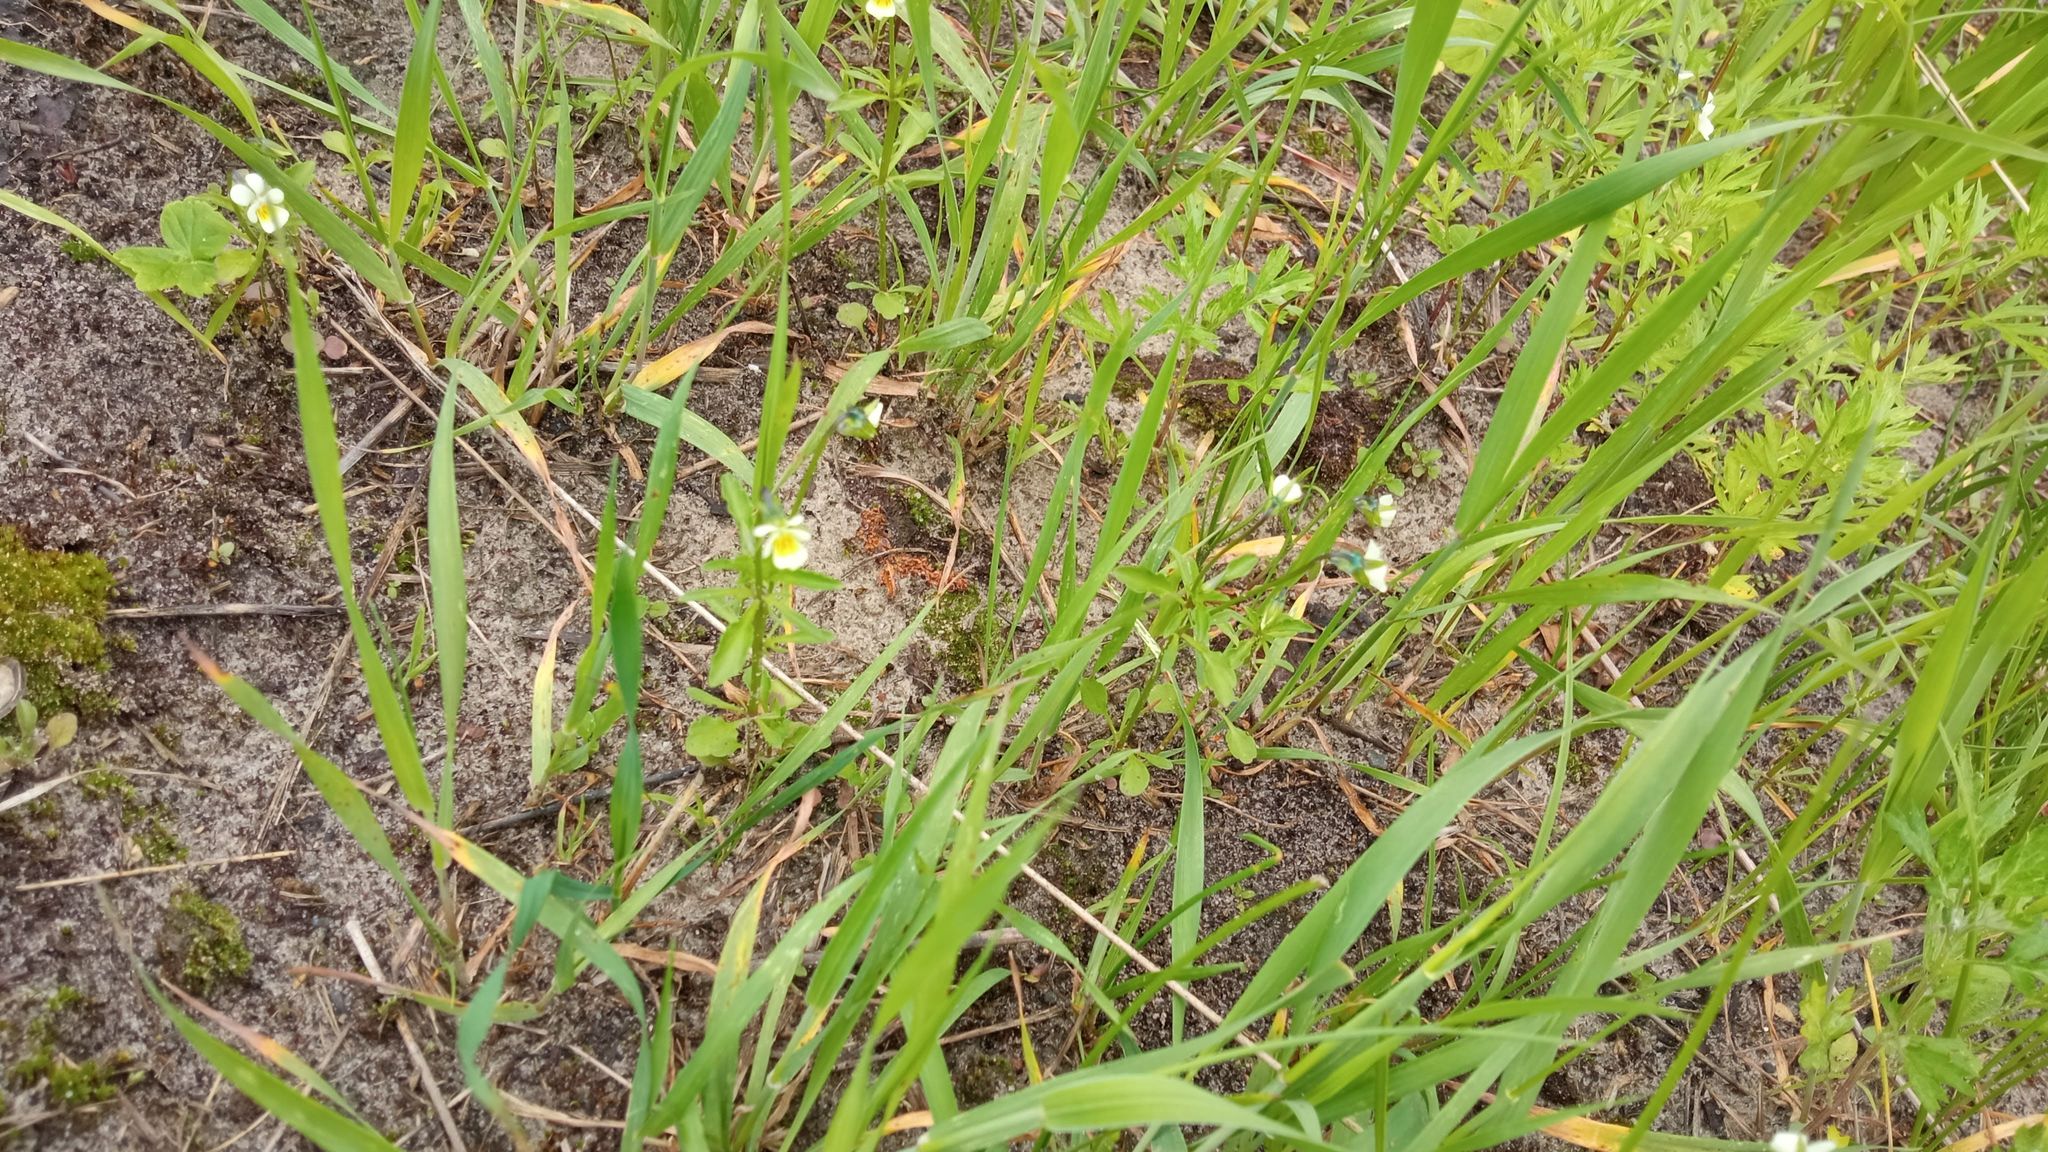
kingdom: Plantae
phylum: Tracheophyta
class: Magnoliopsida
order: Malpighiales
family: Violaceae
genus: Viola
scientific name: Viola arvensis
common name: Field pansy
